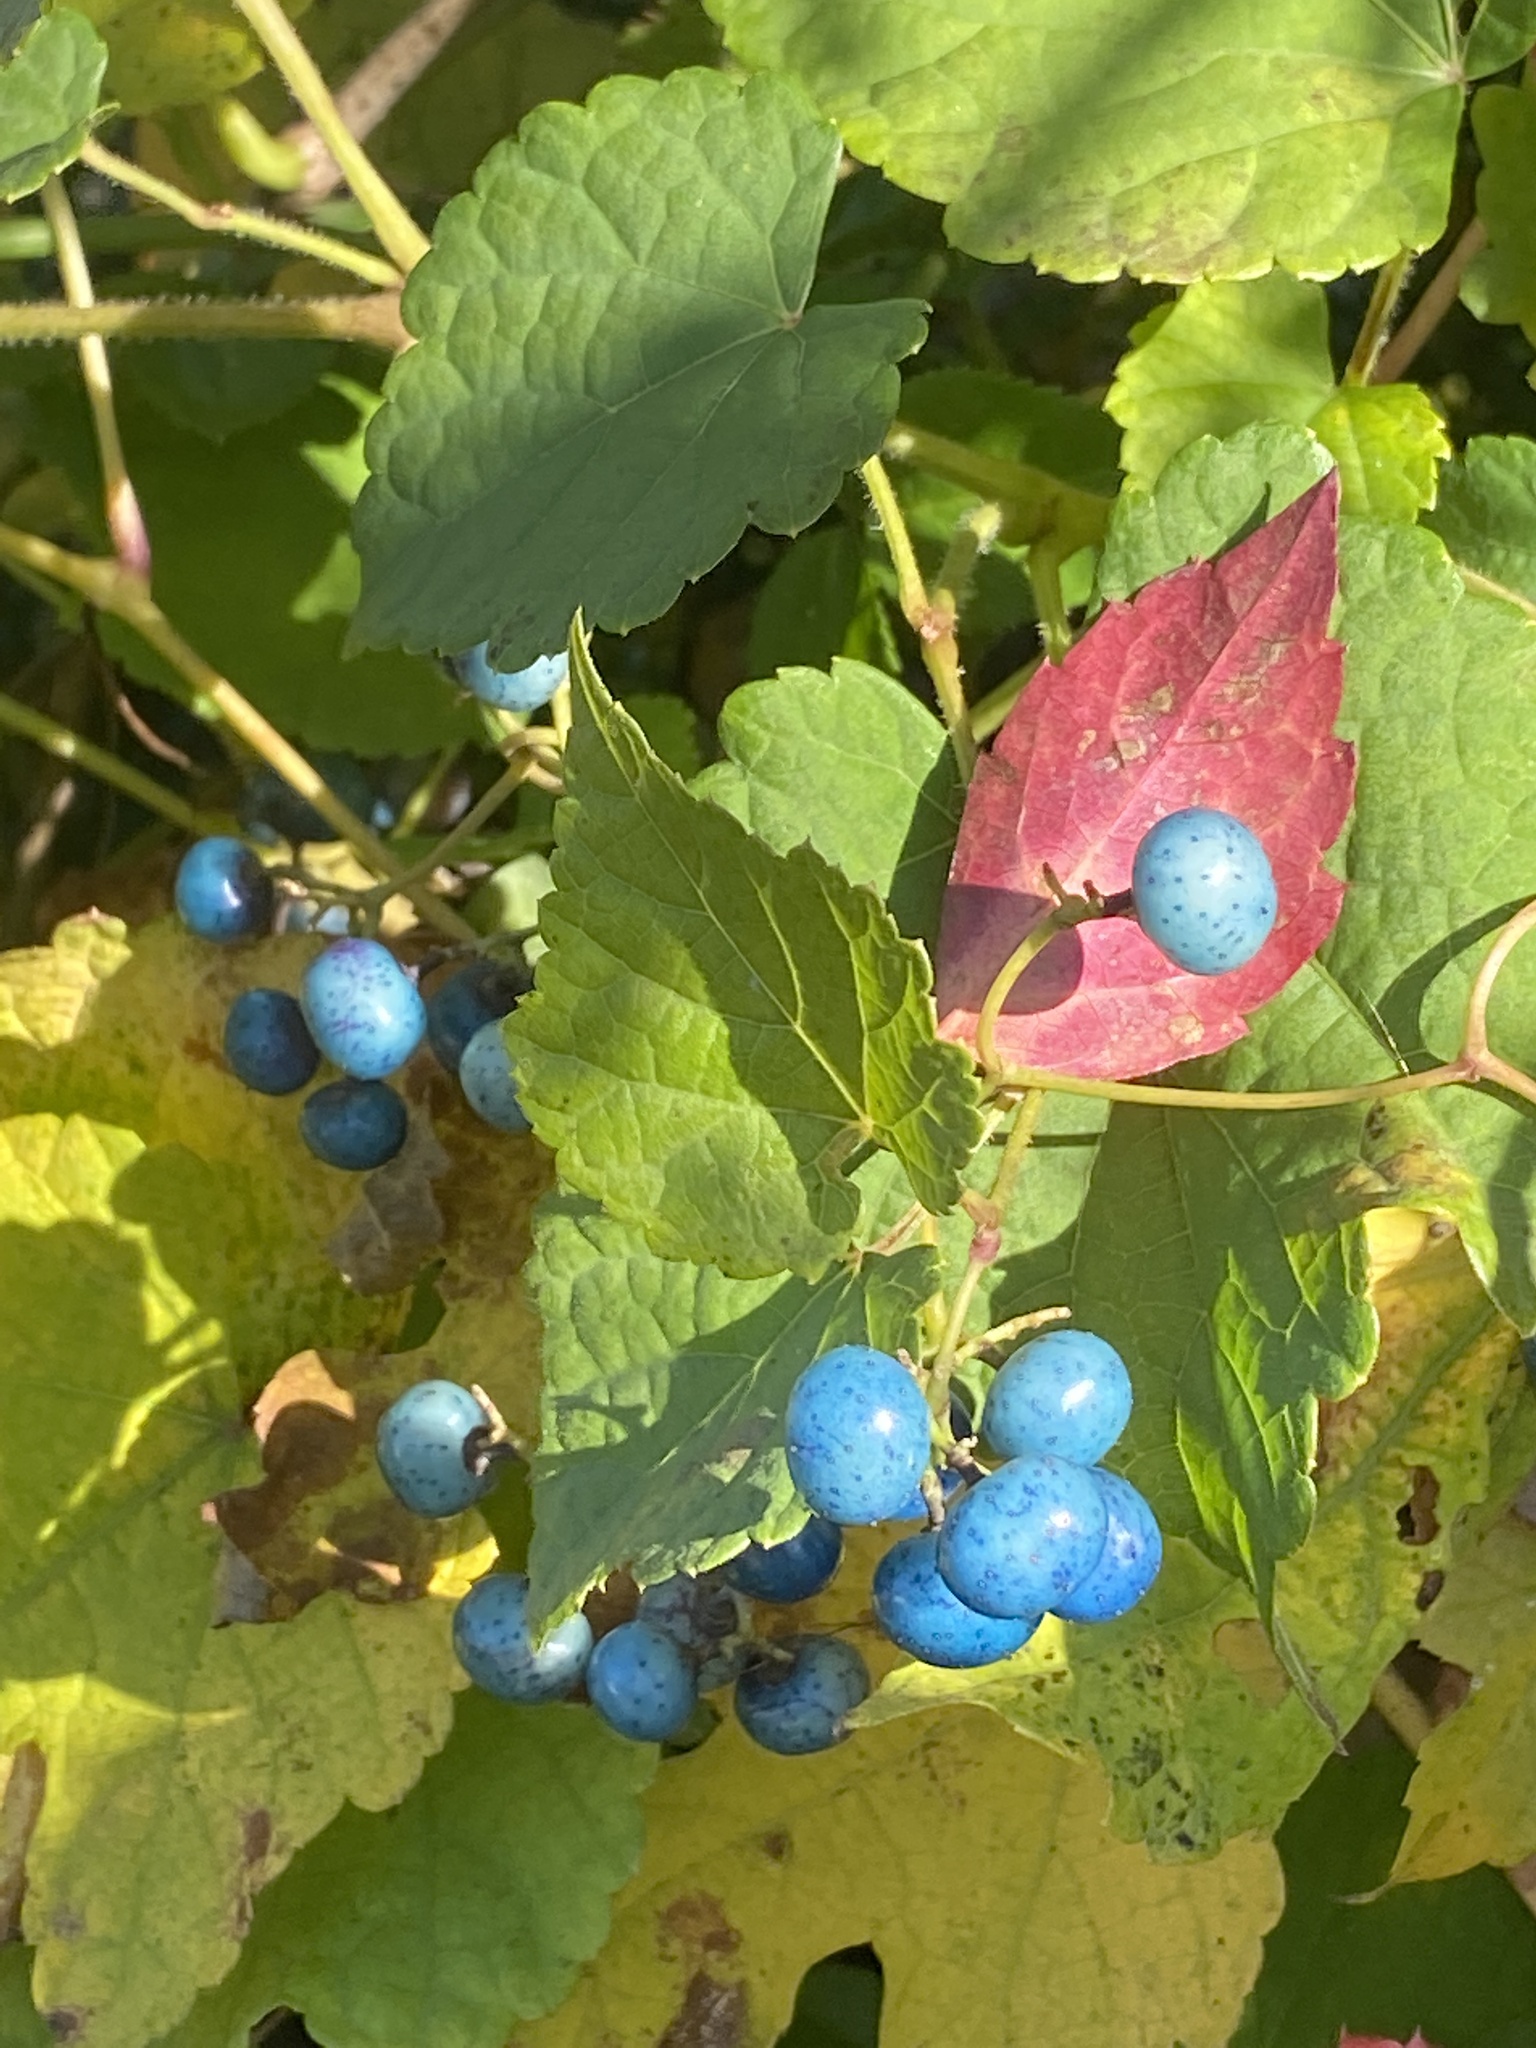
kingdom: Plantae
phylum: Tracheophyta
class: Magnoliopsida
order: Vitales
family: Vitaceae
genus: Ampelopsis
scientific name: Ampelopsis glandulosa
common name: Amur peppervine
